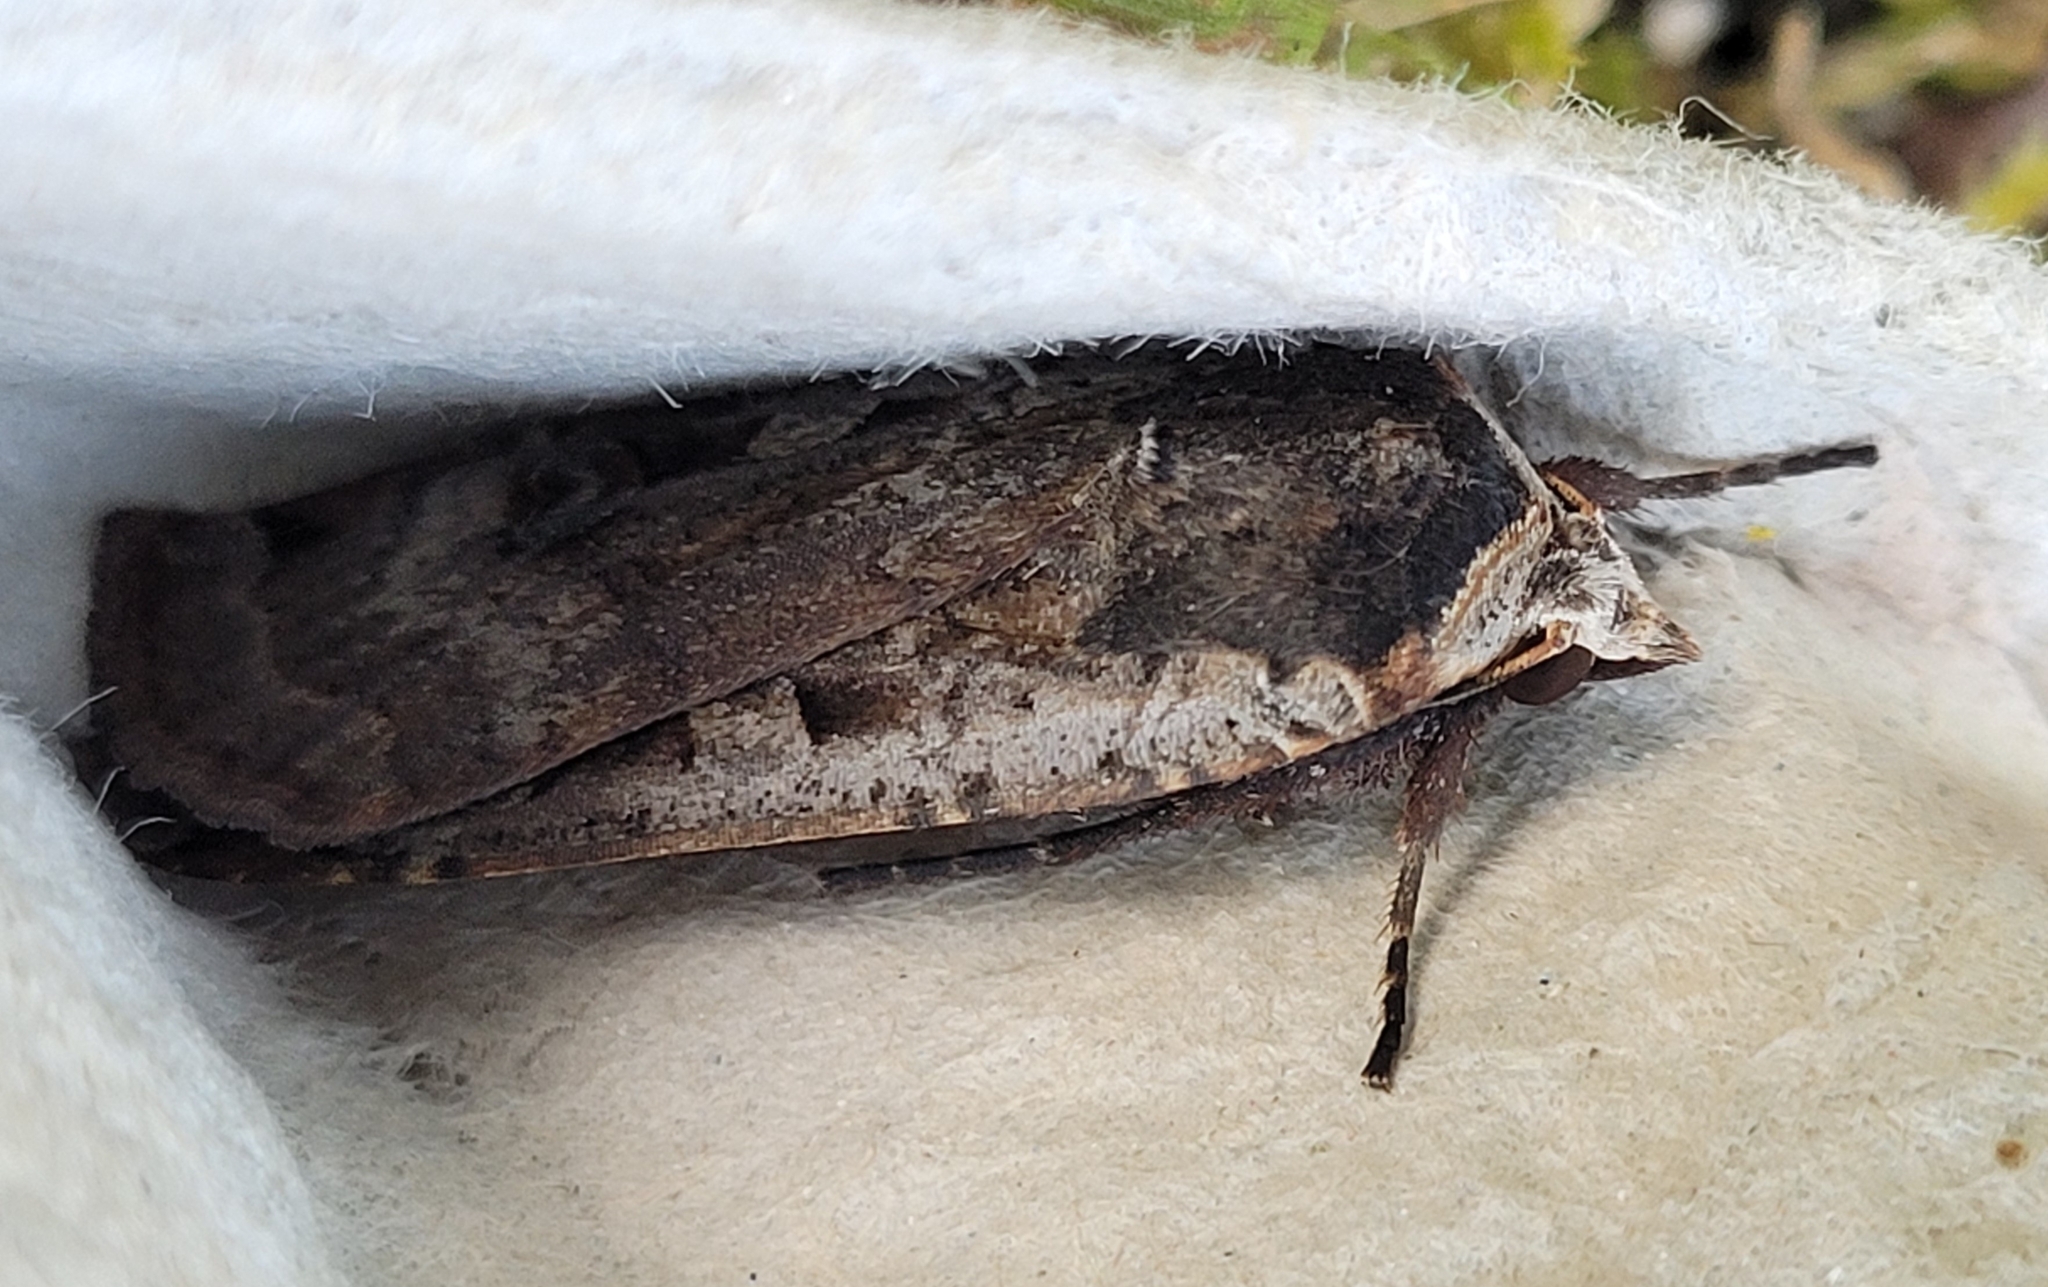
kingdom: Animalia
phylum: Arthropoda
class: Insecta
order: Lepidoptera
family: Noctuidae
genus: Noctua
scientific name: Noctua pronuba
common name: Large yellow underwing
